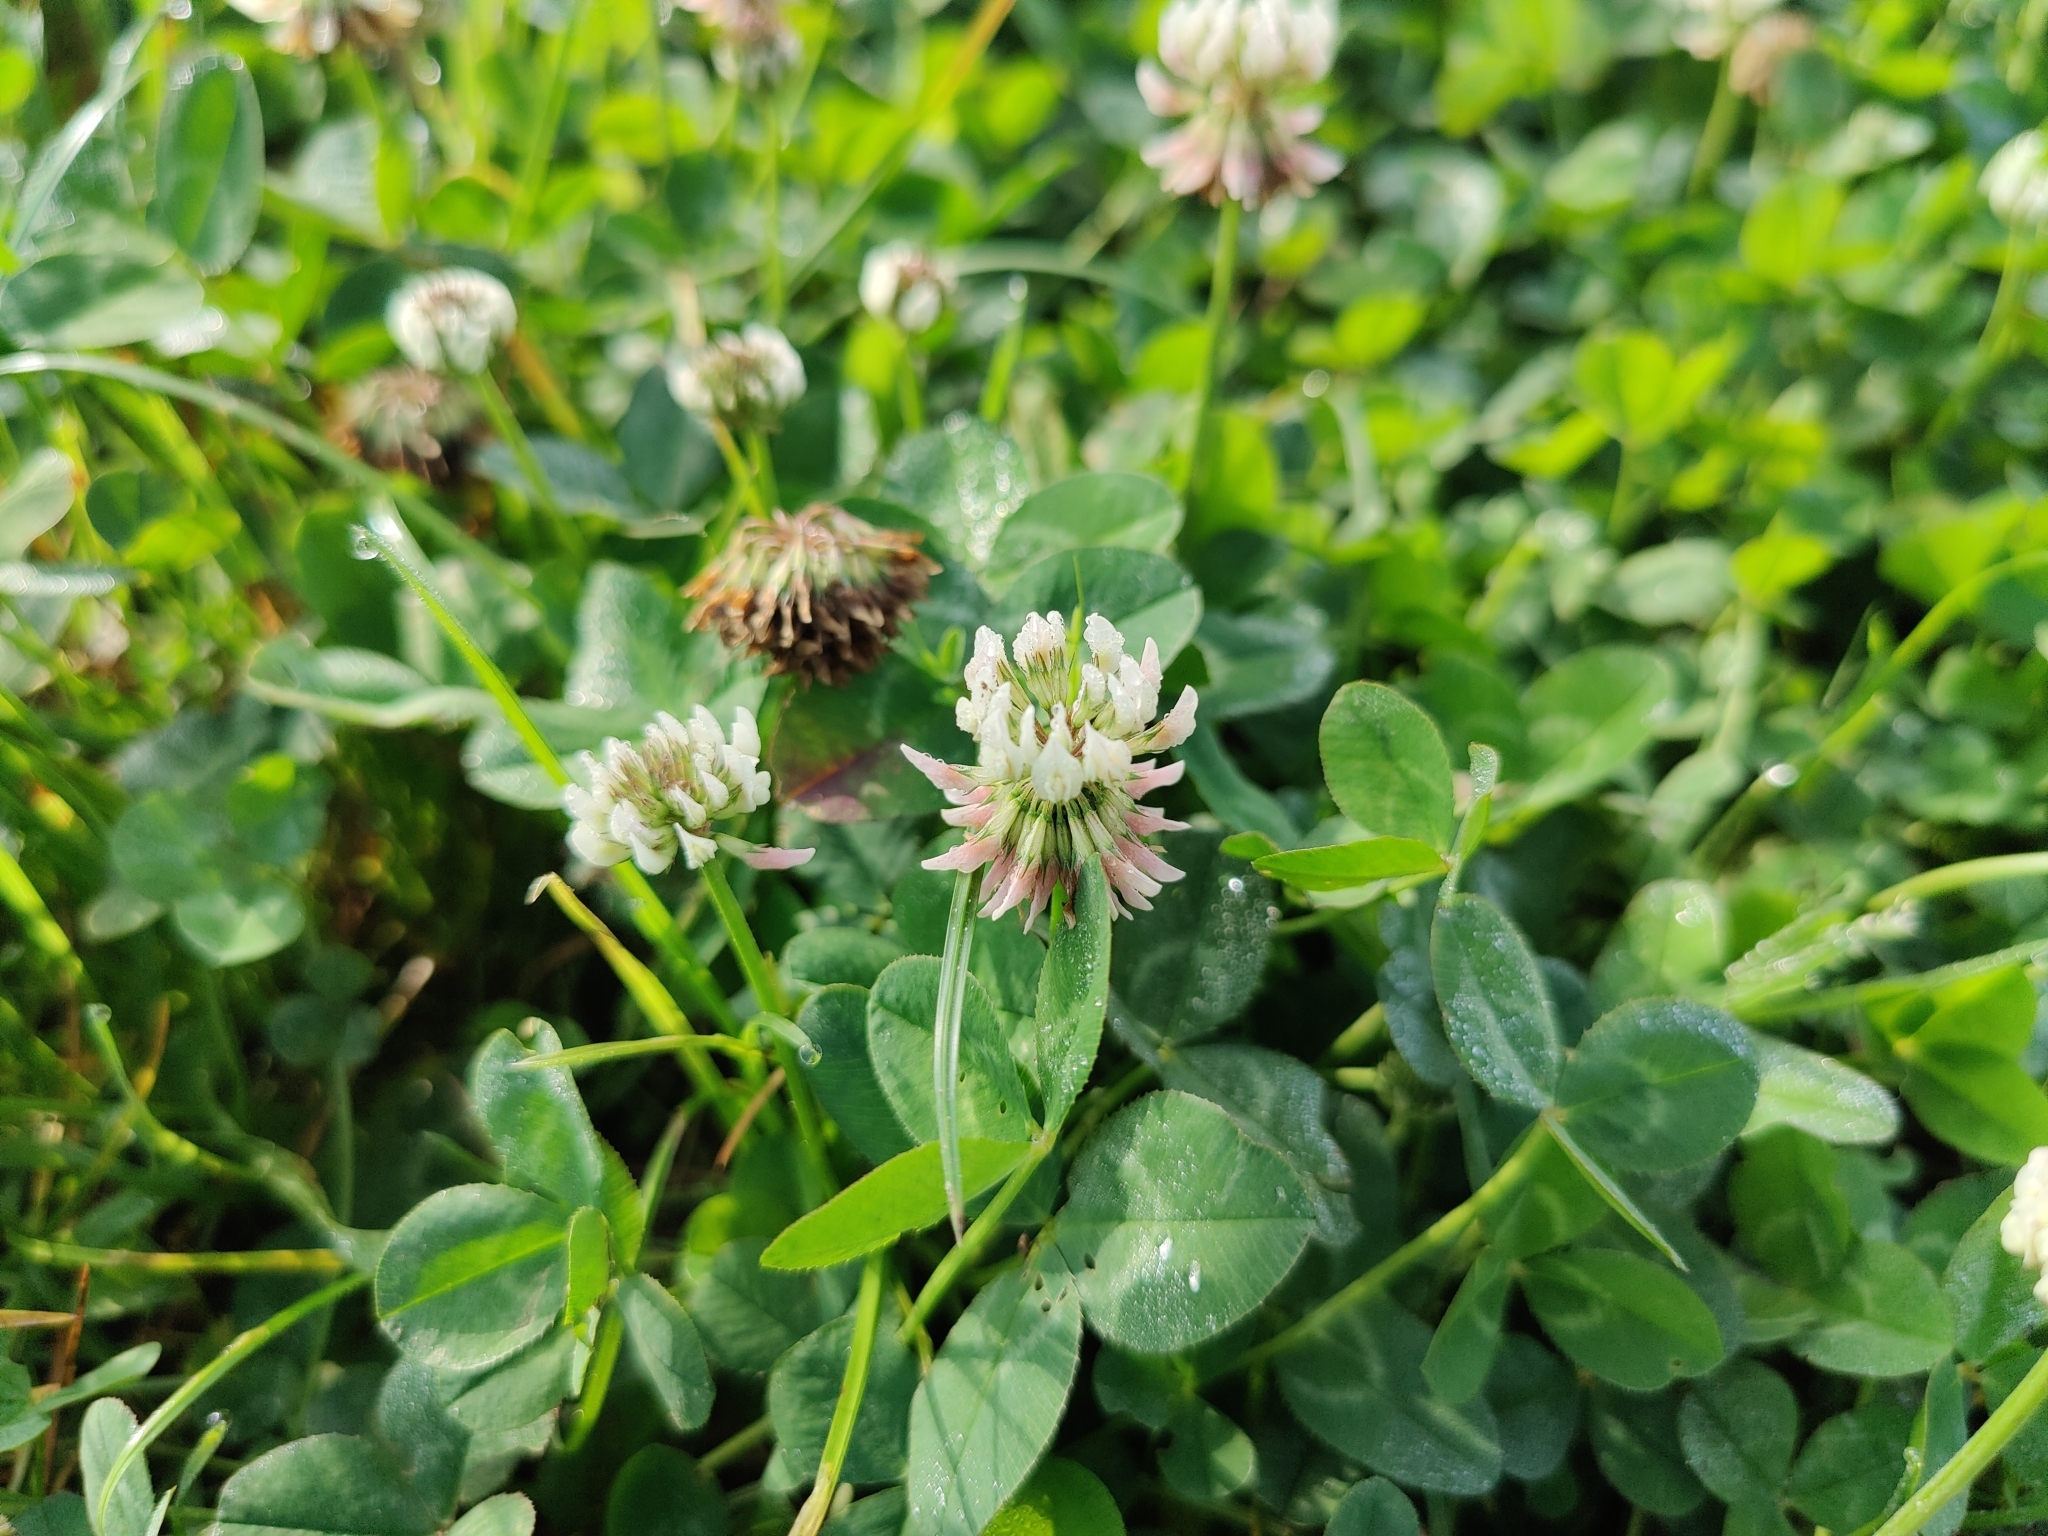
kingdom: Plantae
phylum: Tracheophyta
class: Magnoliopsida
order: Fabales
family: Fabaceae
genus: Trifolium
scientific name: Trifolium repens
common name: White clover
